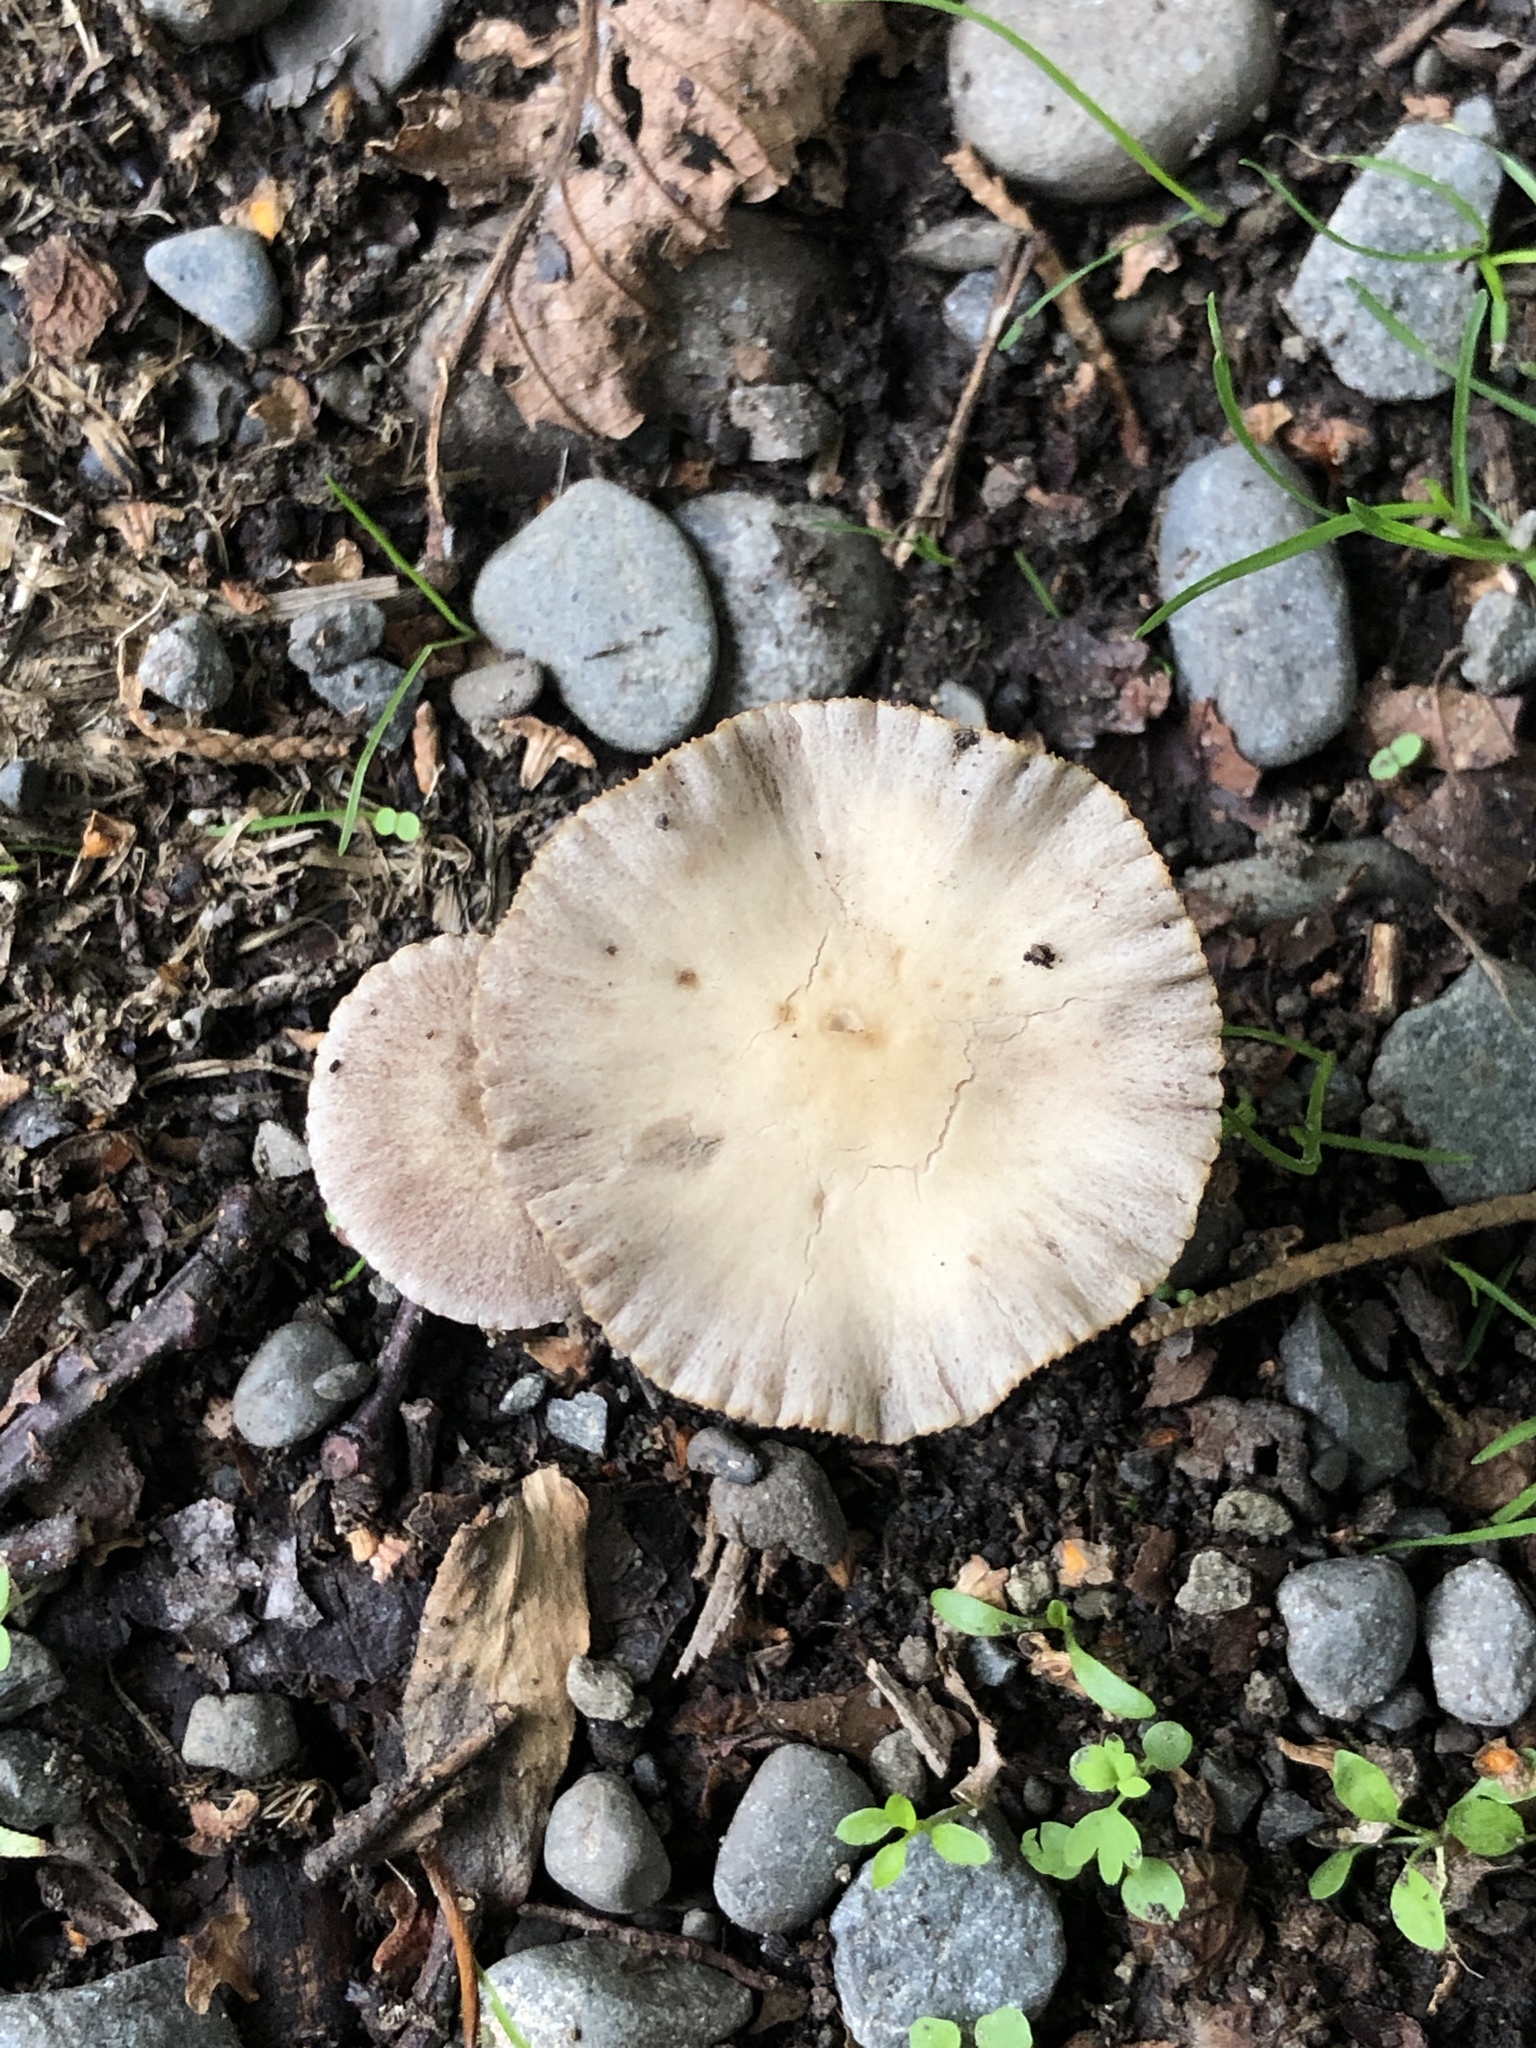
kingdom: Fungi
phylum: Basidiomycota
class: Agaricomycetes
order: Agaricales
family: Bolbitiaceae
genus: Bolbitius
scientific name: Bolbitius titubans
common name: Yellow fieldcap
